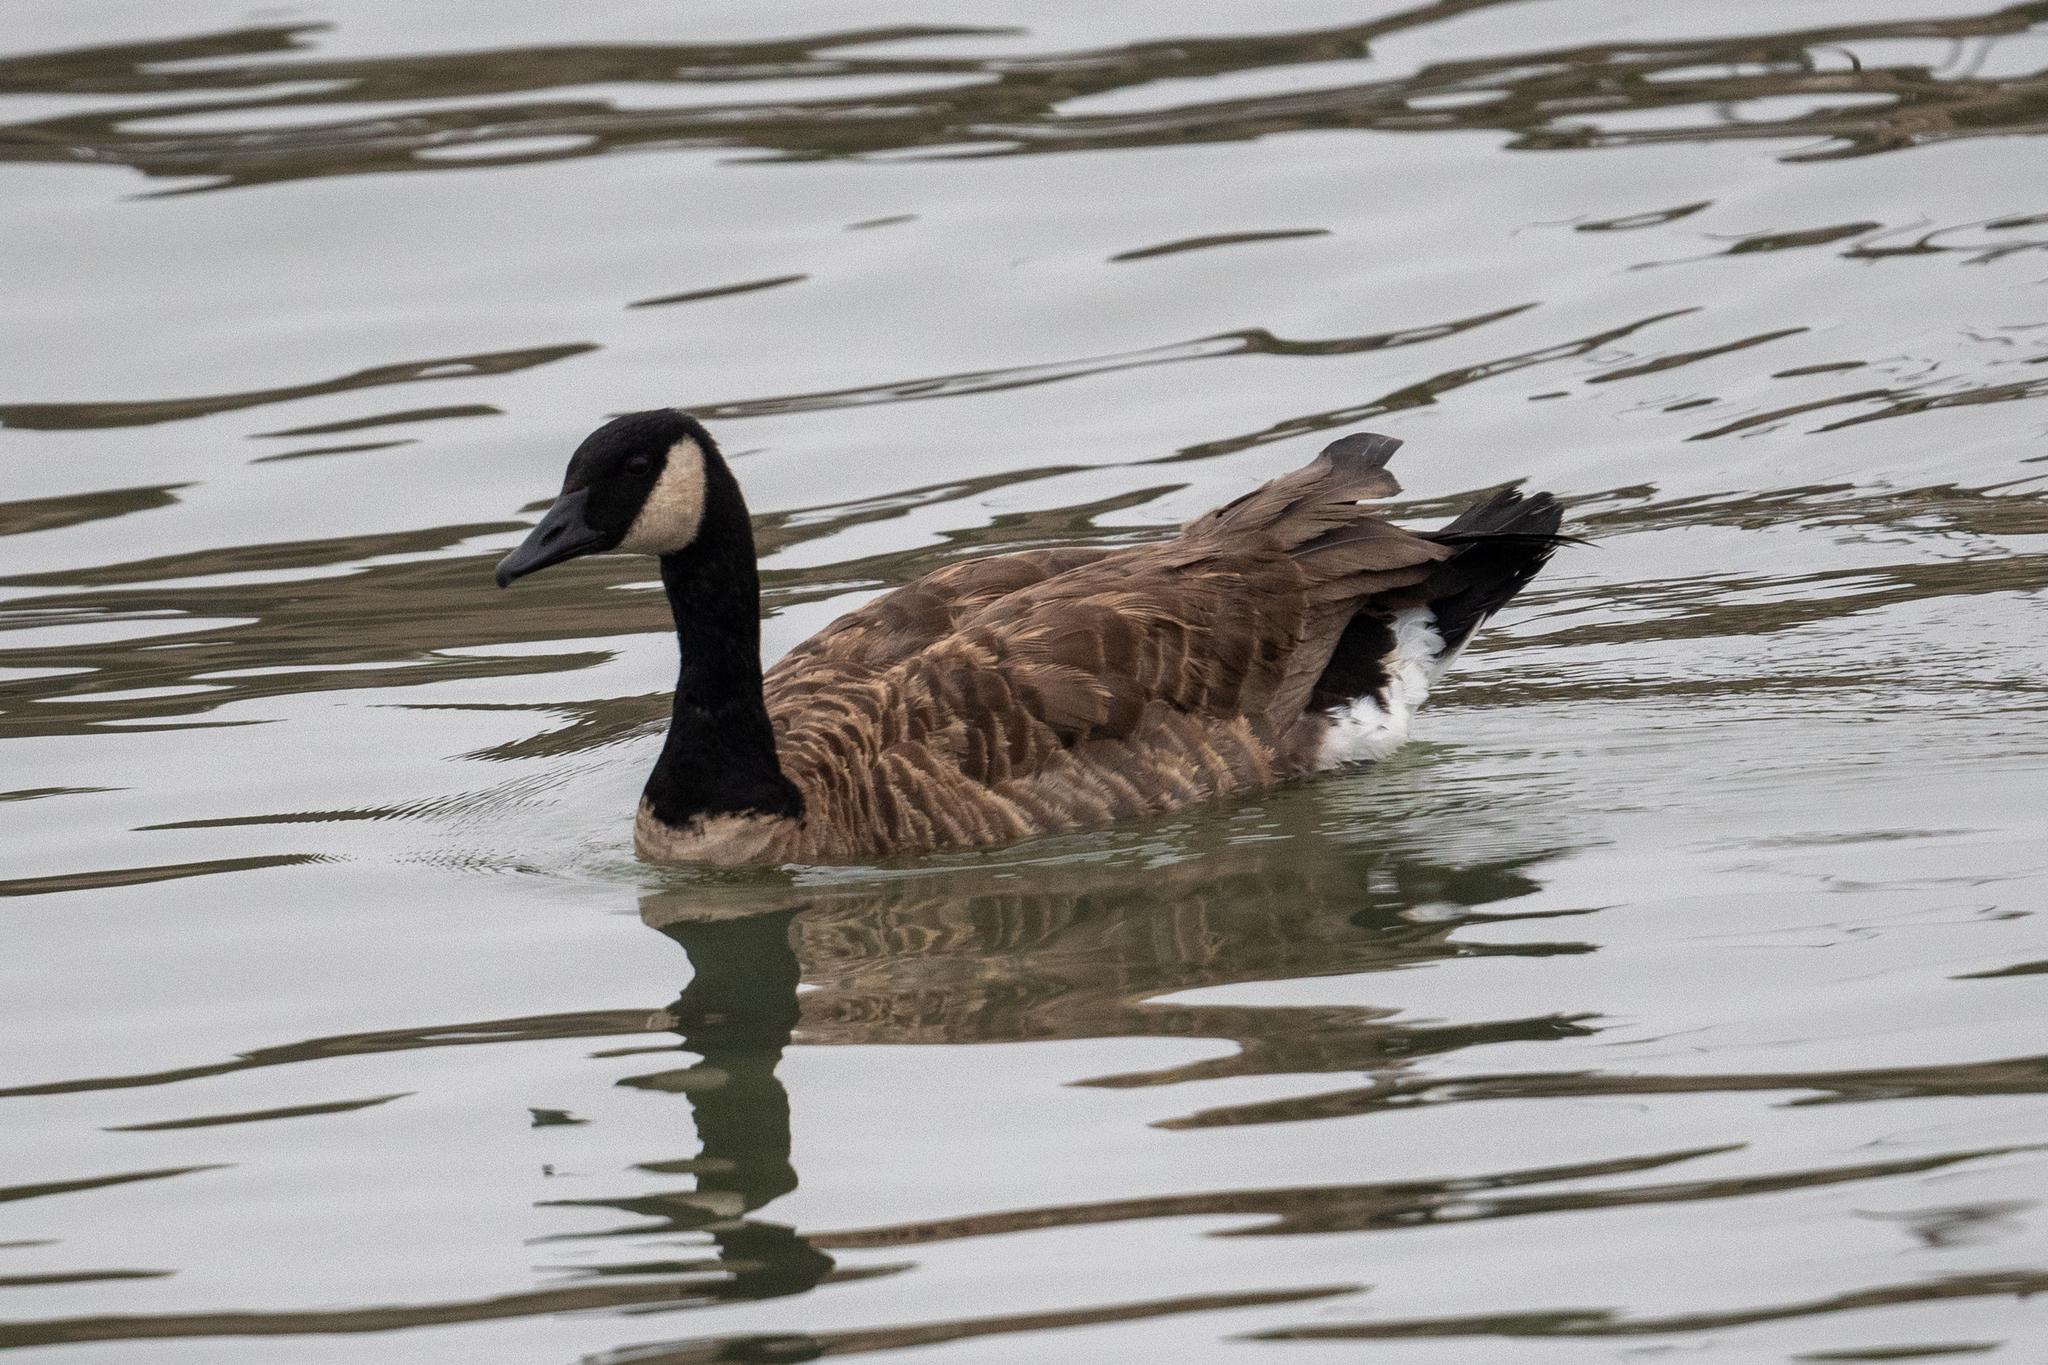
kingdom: Animalia
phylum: Chordata
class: Aves
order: Anseriformes
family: Anatidae
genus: Branta
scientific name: Branta canadensis
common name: Canada goose
